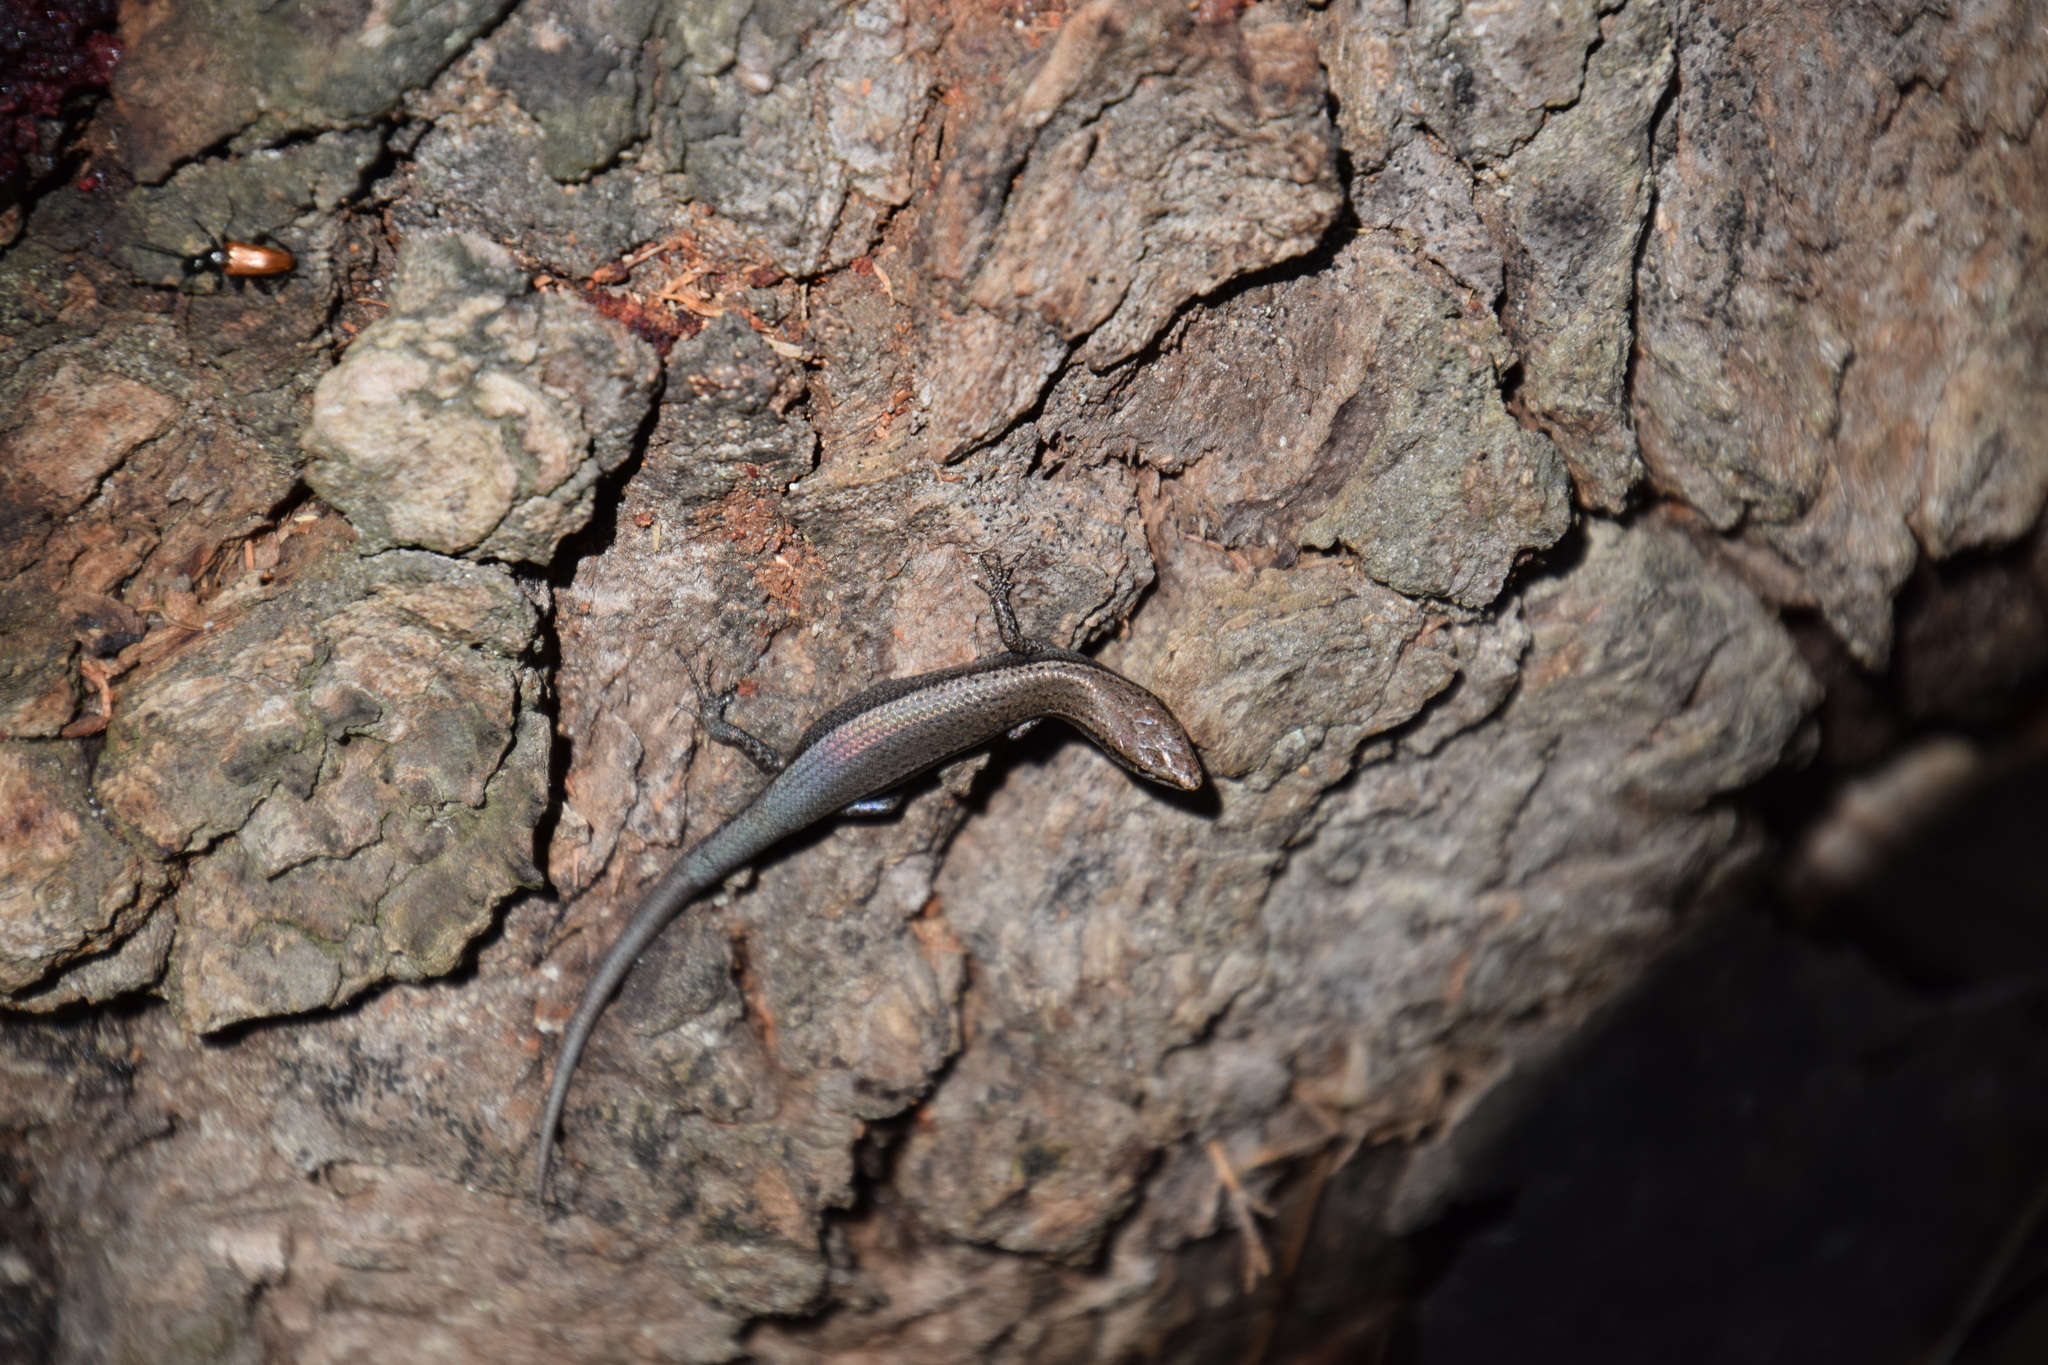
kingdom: Animalia
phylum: Chordata
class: Squamata
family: Scincidae
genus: Lampropholis
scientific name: Lampropholis delicata
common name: Plague skink
